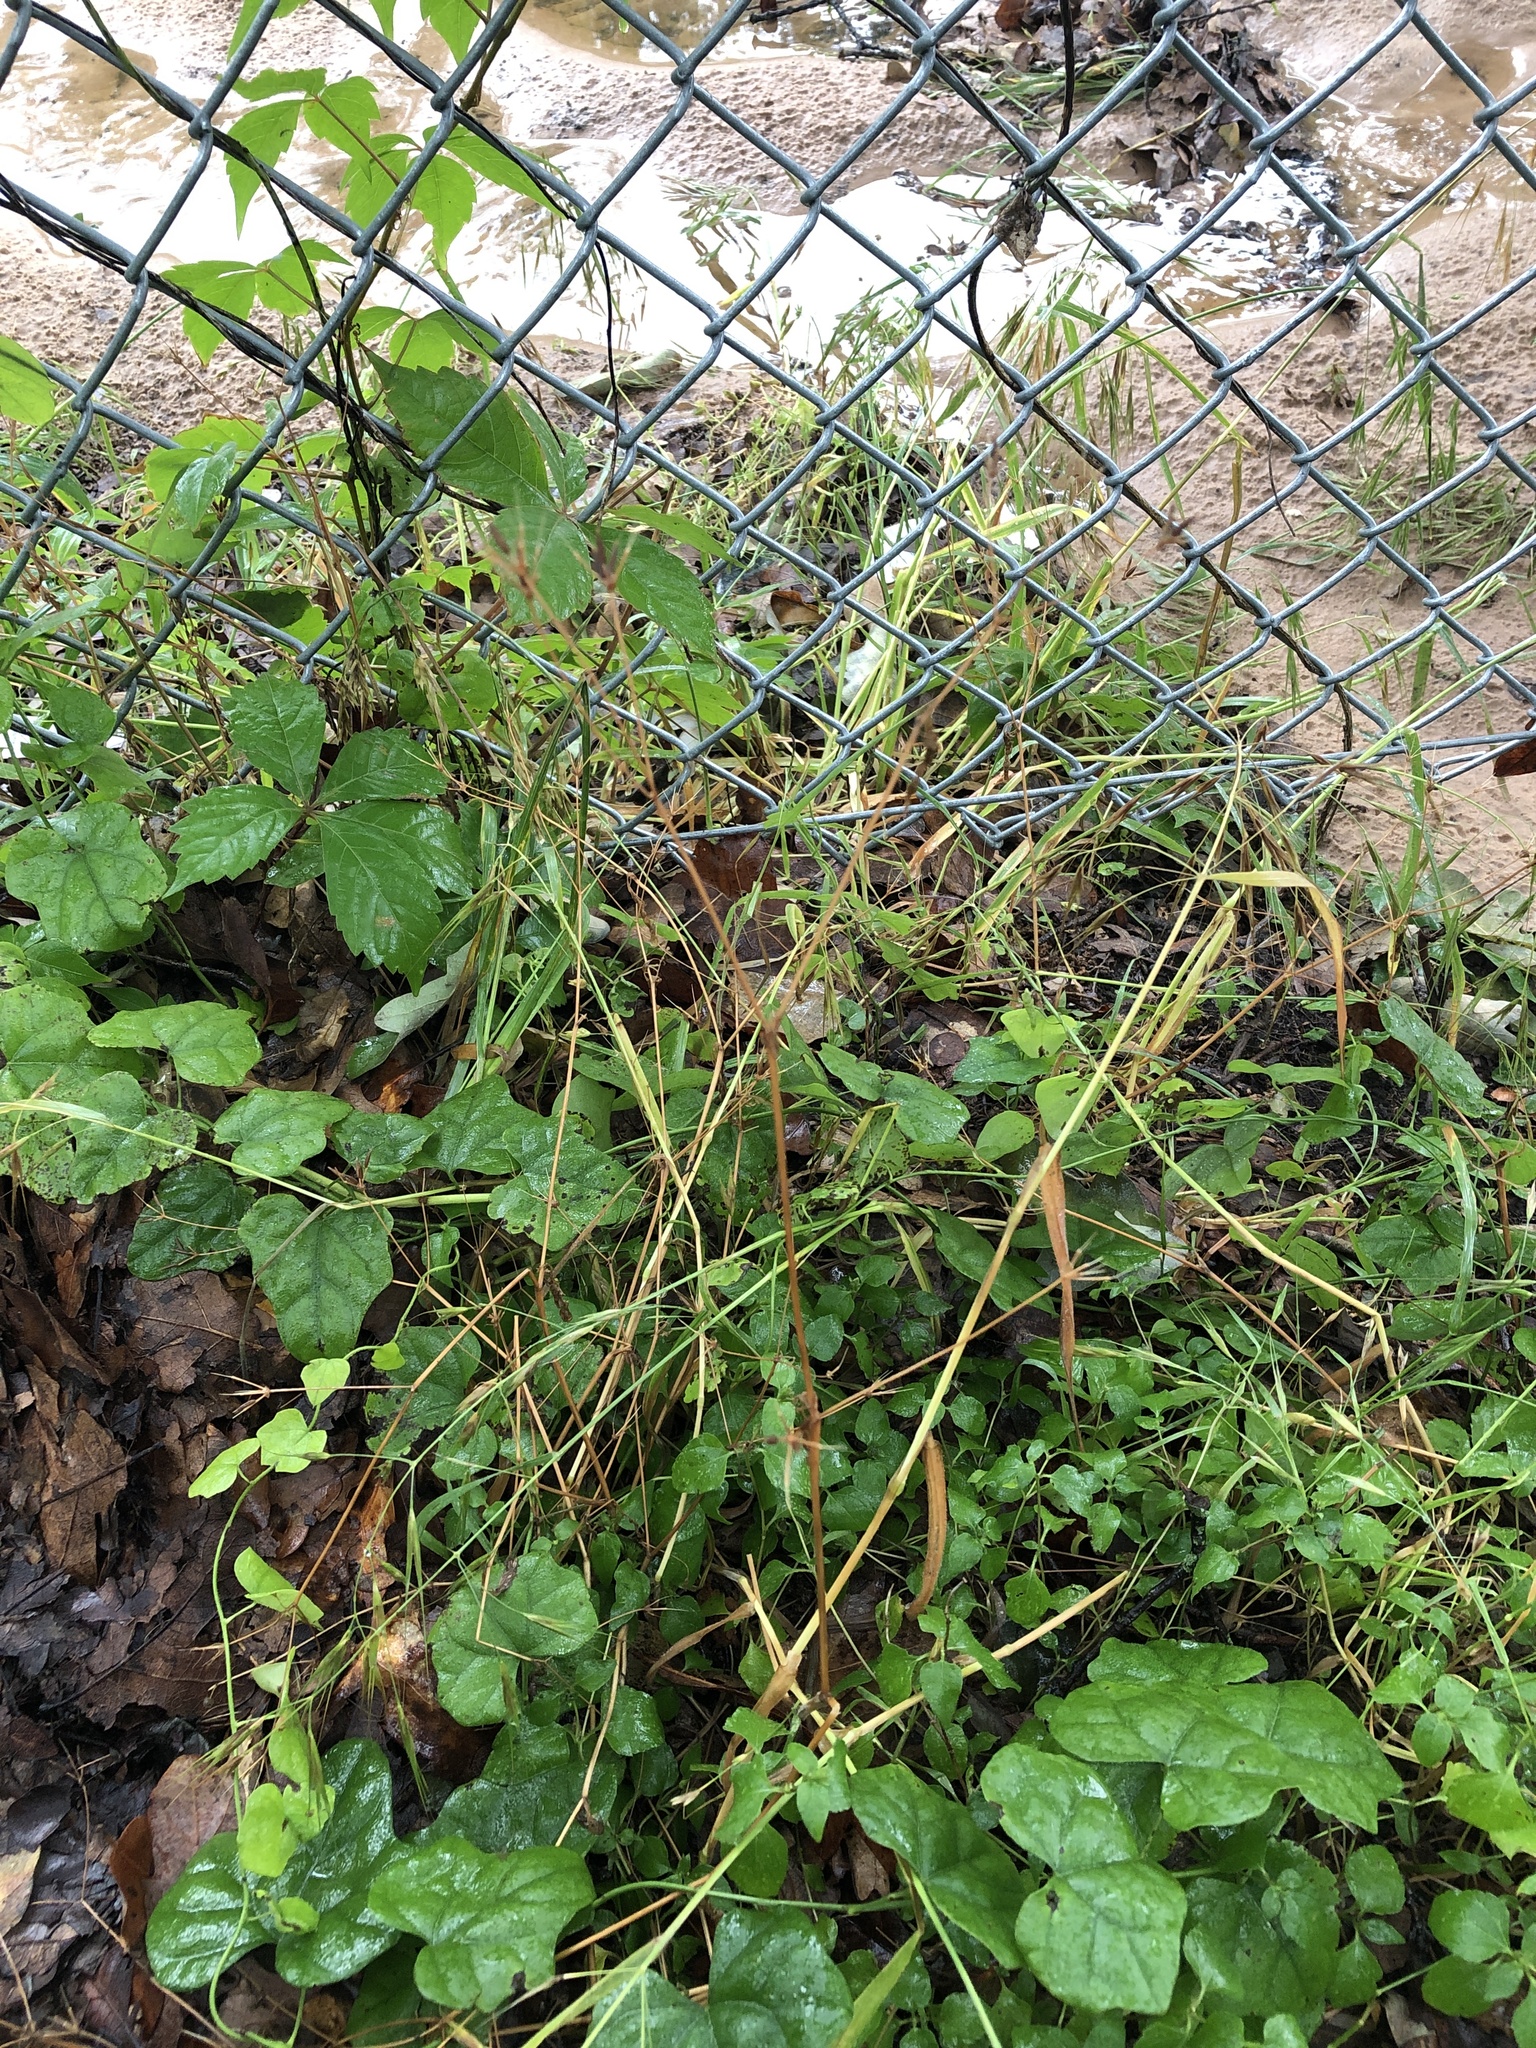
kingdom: Plantae
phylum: Tracheophyta
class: Magnoliopsida
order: Apiales
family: Apiaceae
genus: Chaerophyllum
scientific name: Chaerophyllum tainturieri
